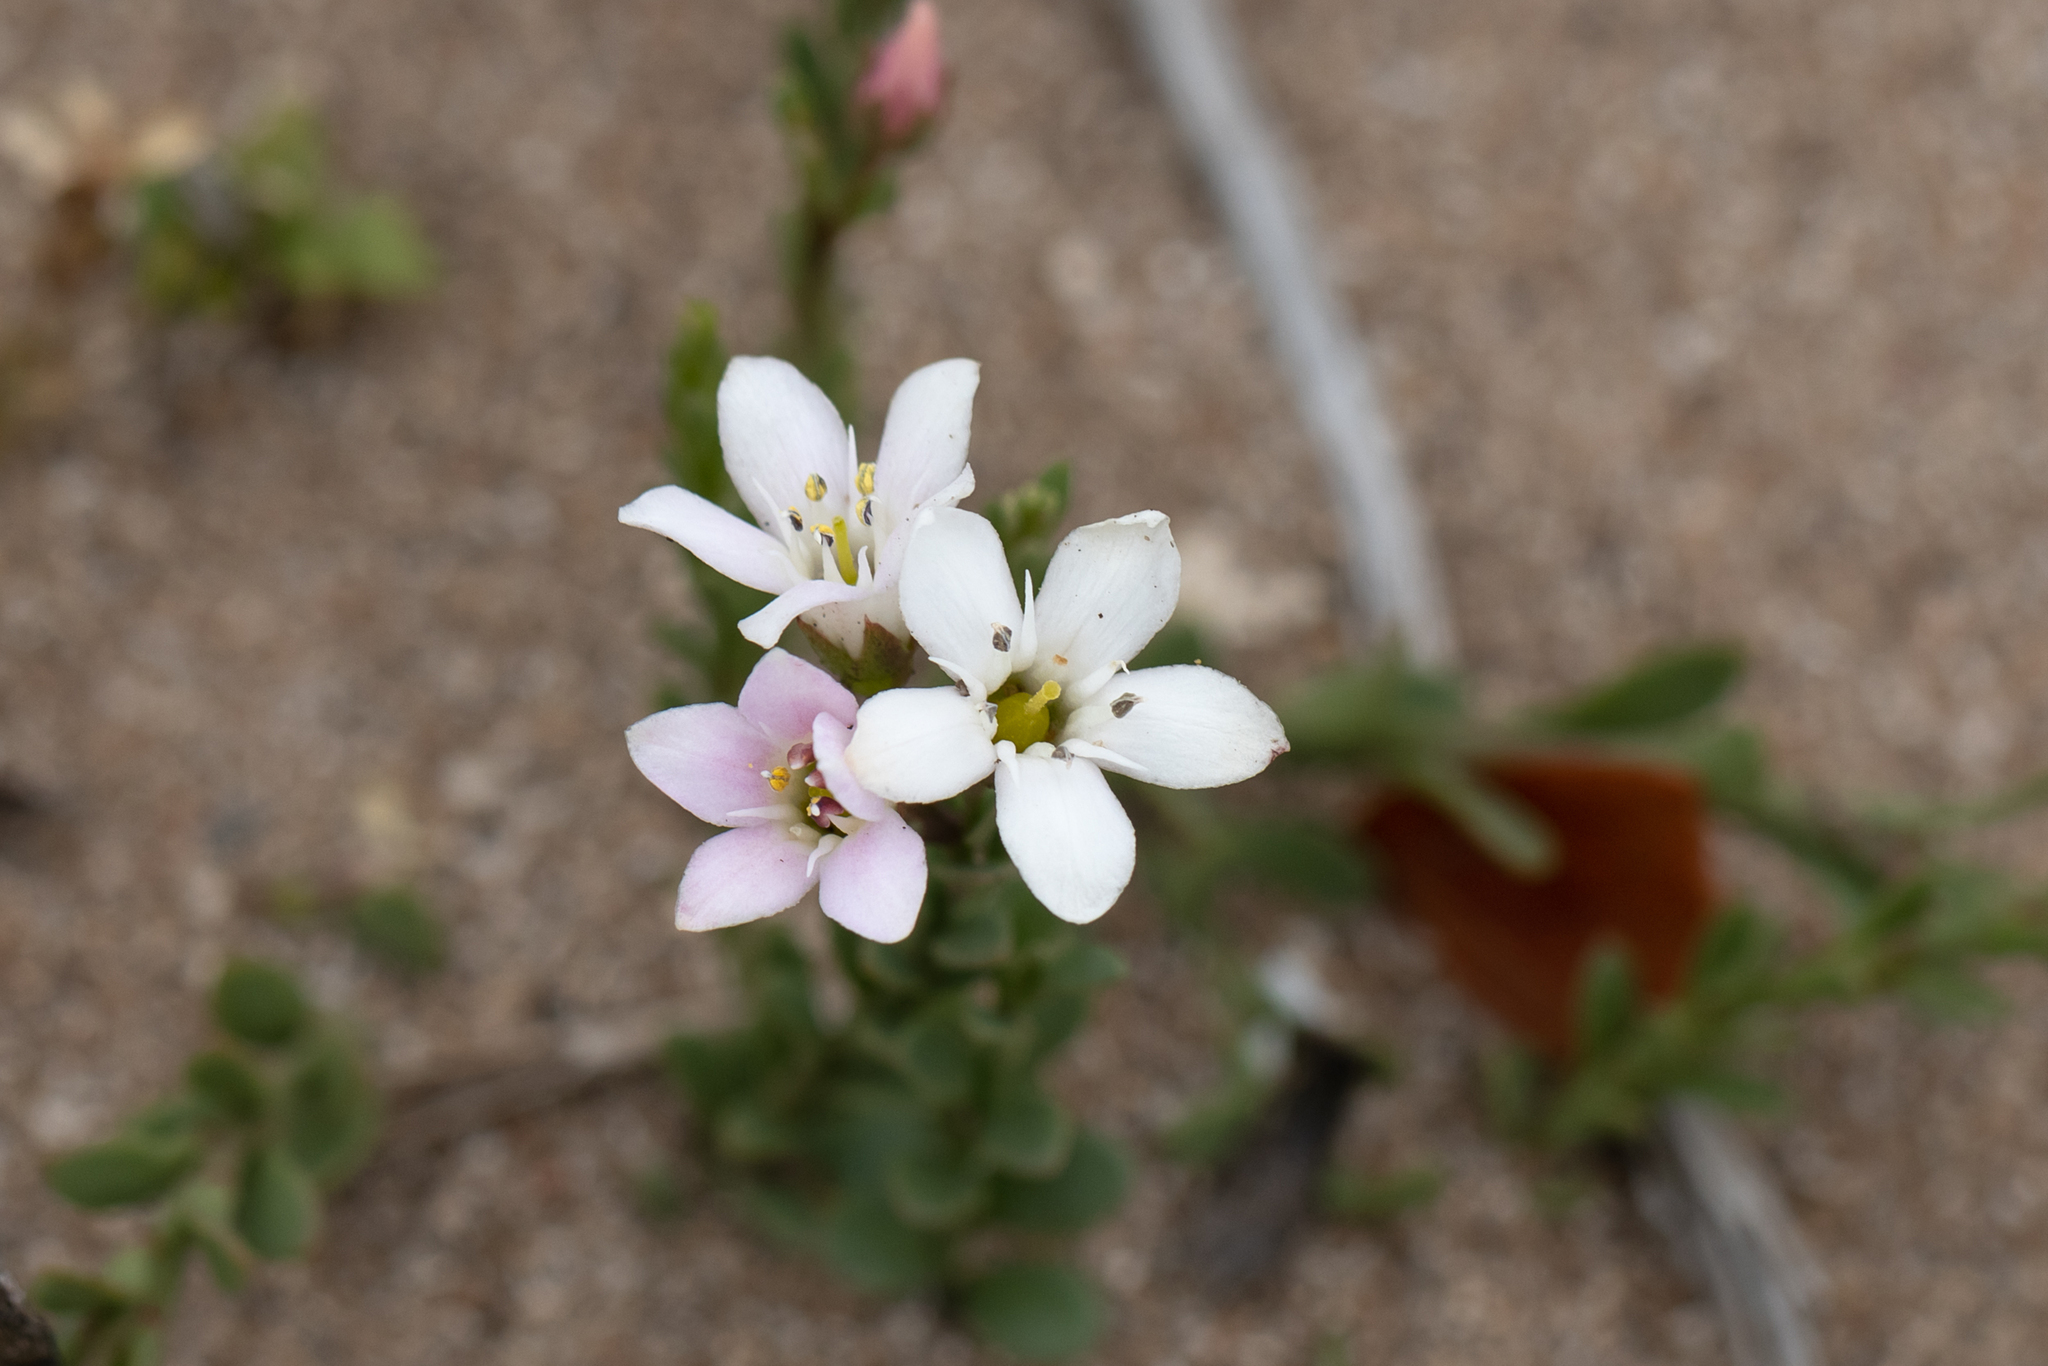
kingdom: Plantae
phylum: Tracheophyta
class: Magnoliopsida
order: Ericales
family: Primulaceae
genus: Samolus
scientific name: Samolus repens
